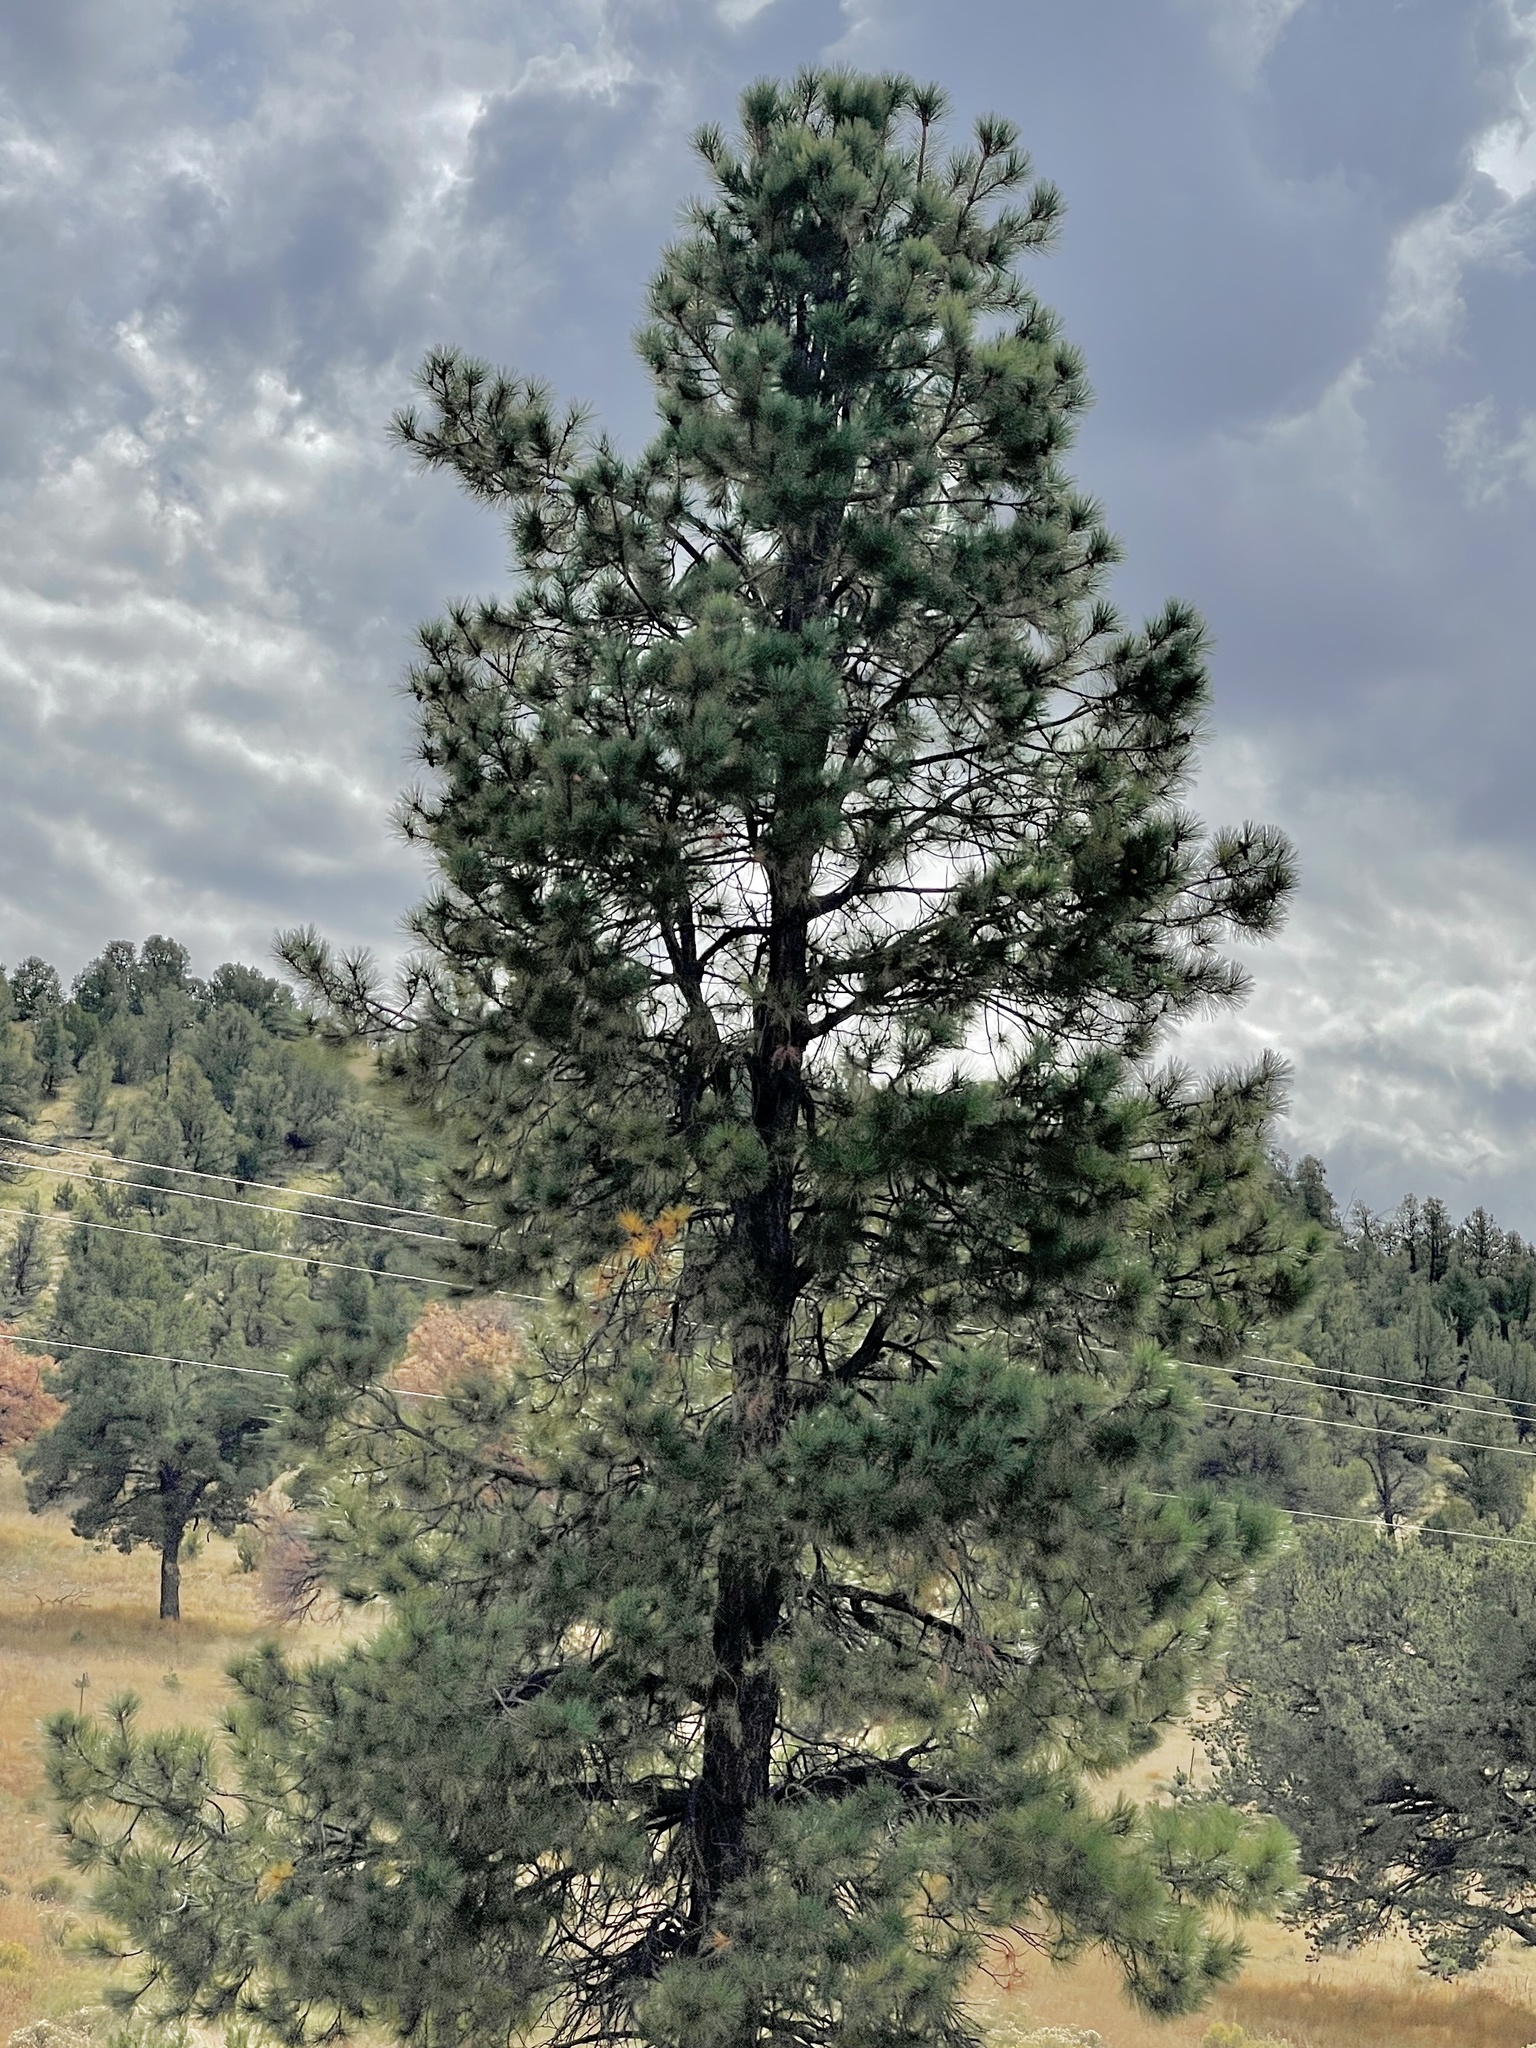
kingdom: Plantae
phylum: Tracheophyta
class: Pinopsida
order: Pinales
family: Pinaceae
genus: Pinus
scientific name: Pinus ponderosa
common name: Western yellow-pine
